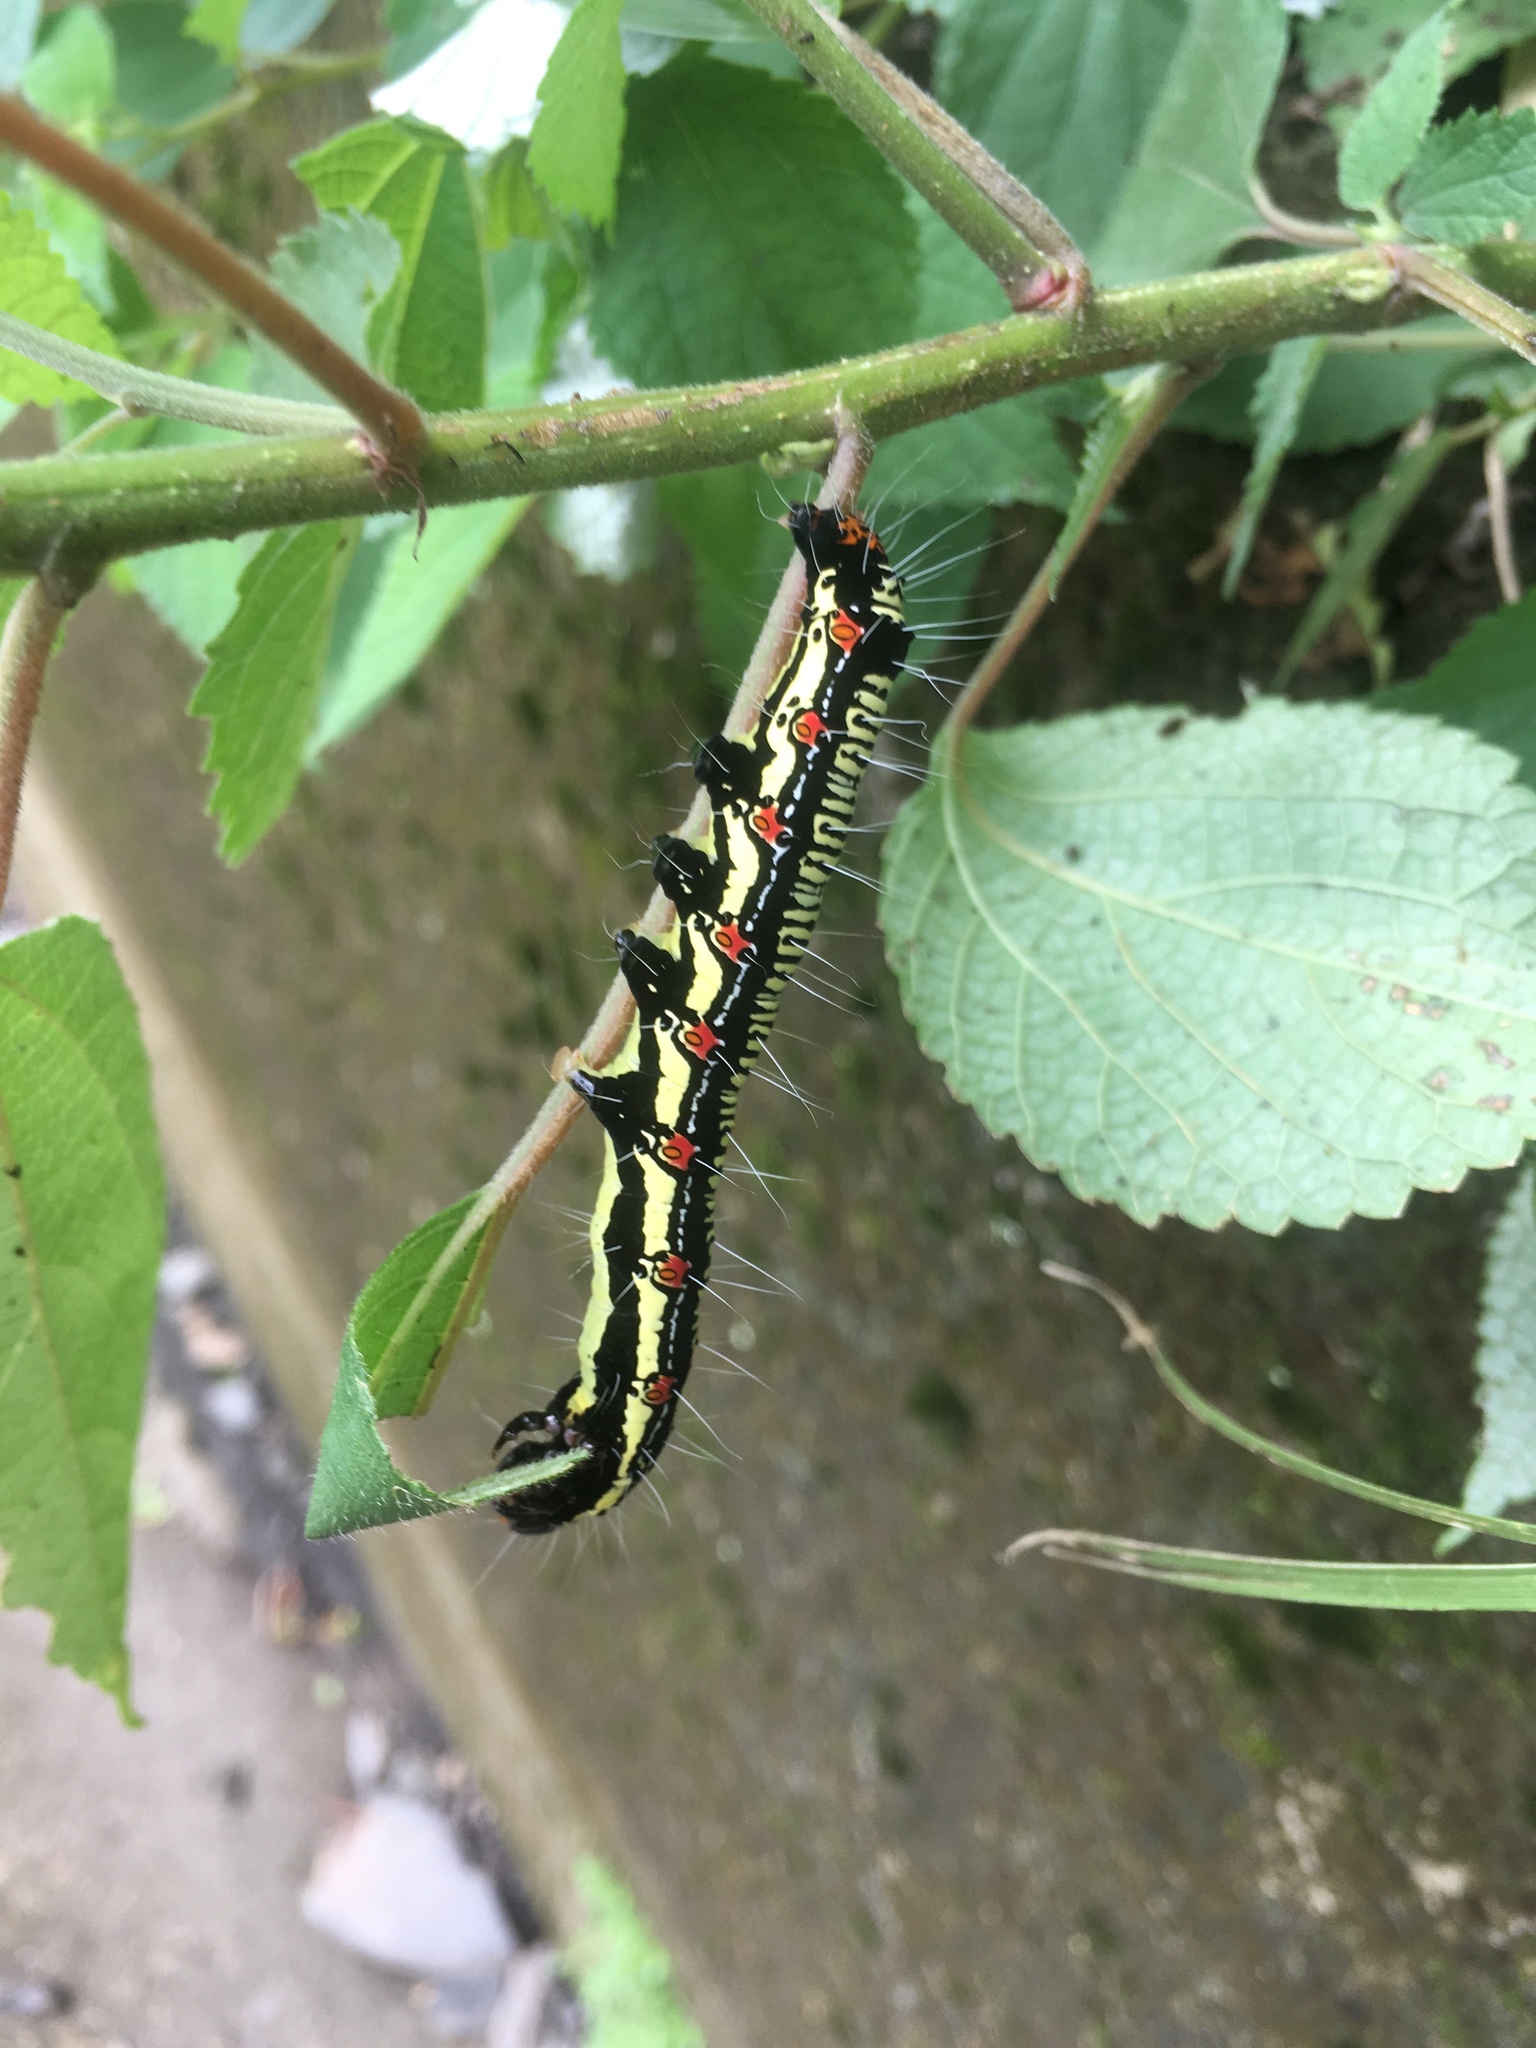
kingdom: Animalia
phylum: Arthropoda
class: Insecta
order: Lepidoptera
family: Erebidae
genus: Arcte
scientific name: Arcte coerula
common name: Ramie moth
